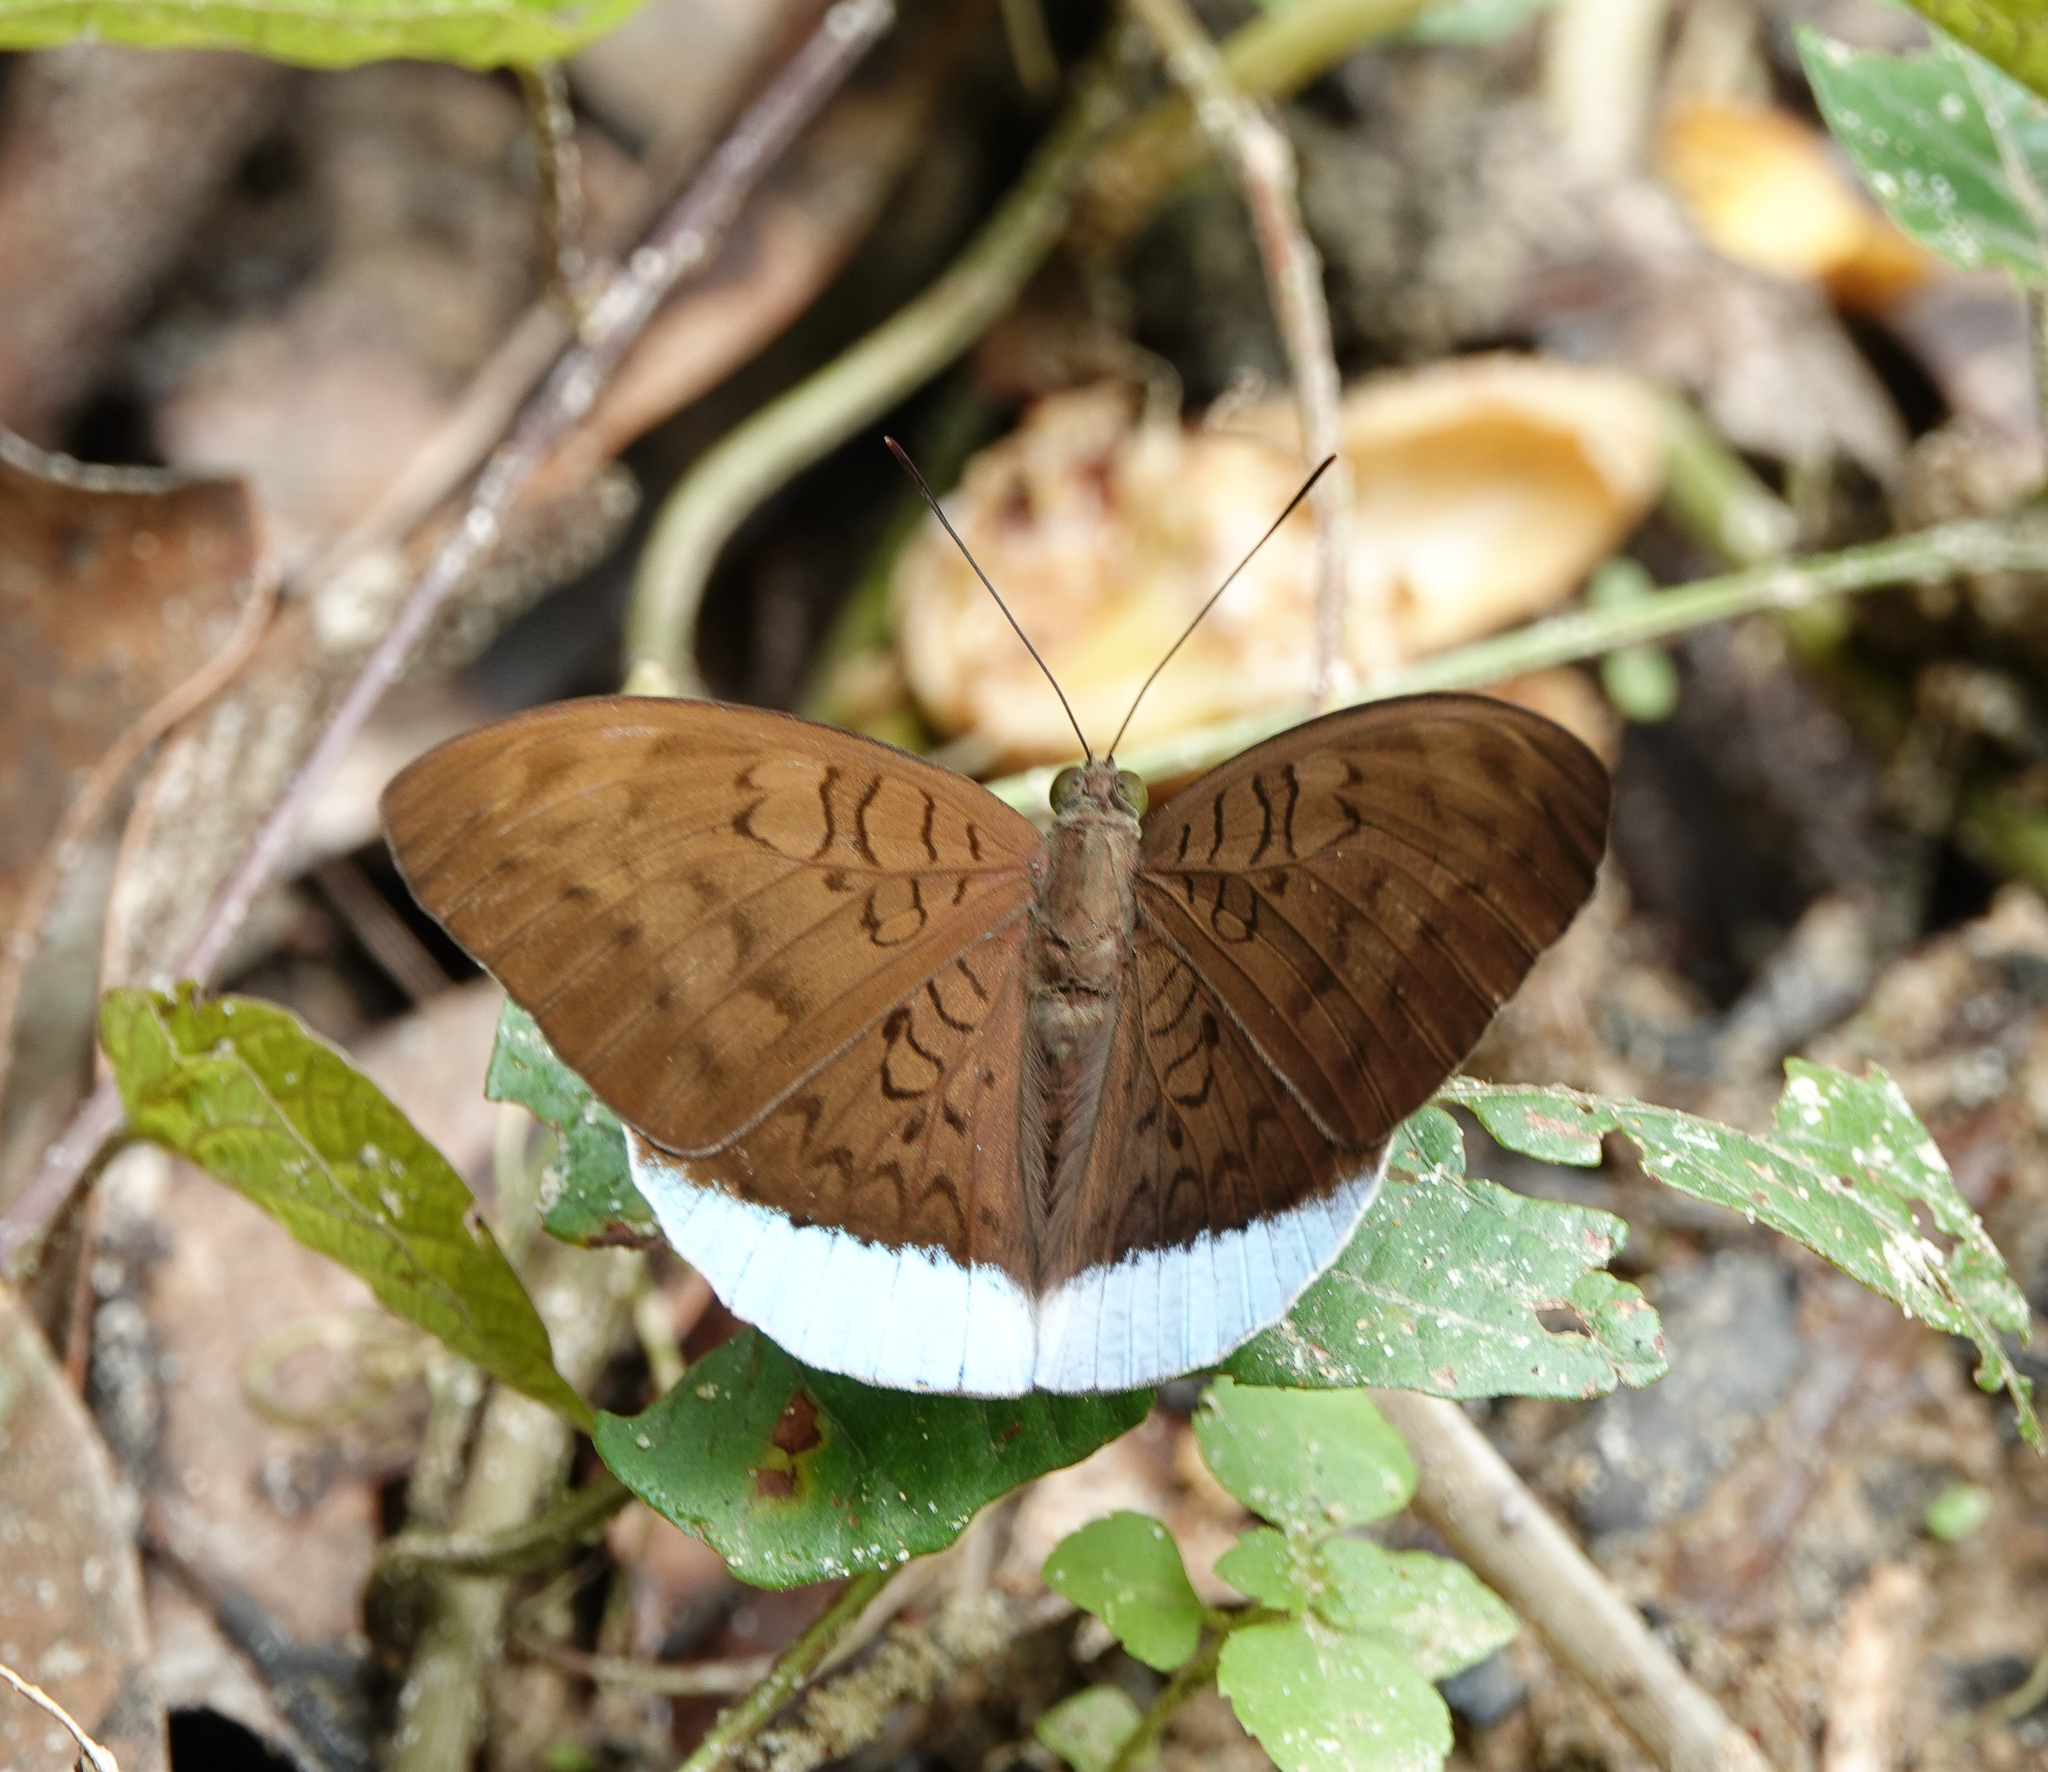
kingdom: Animalia
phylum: Arthropoda
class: Insecta
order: Lepidoptera
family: Nymphalidae
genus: Tanaecia
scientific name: Tanaecia julii
